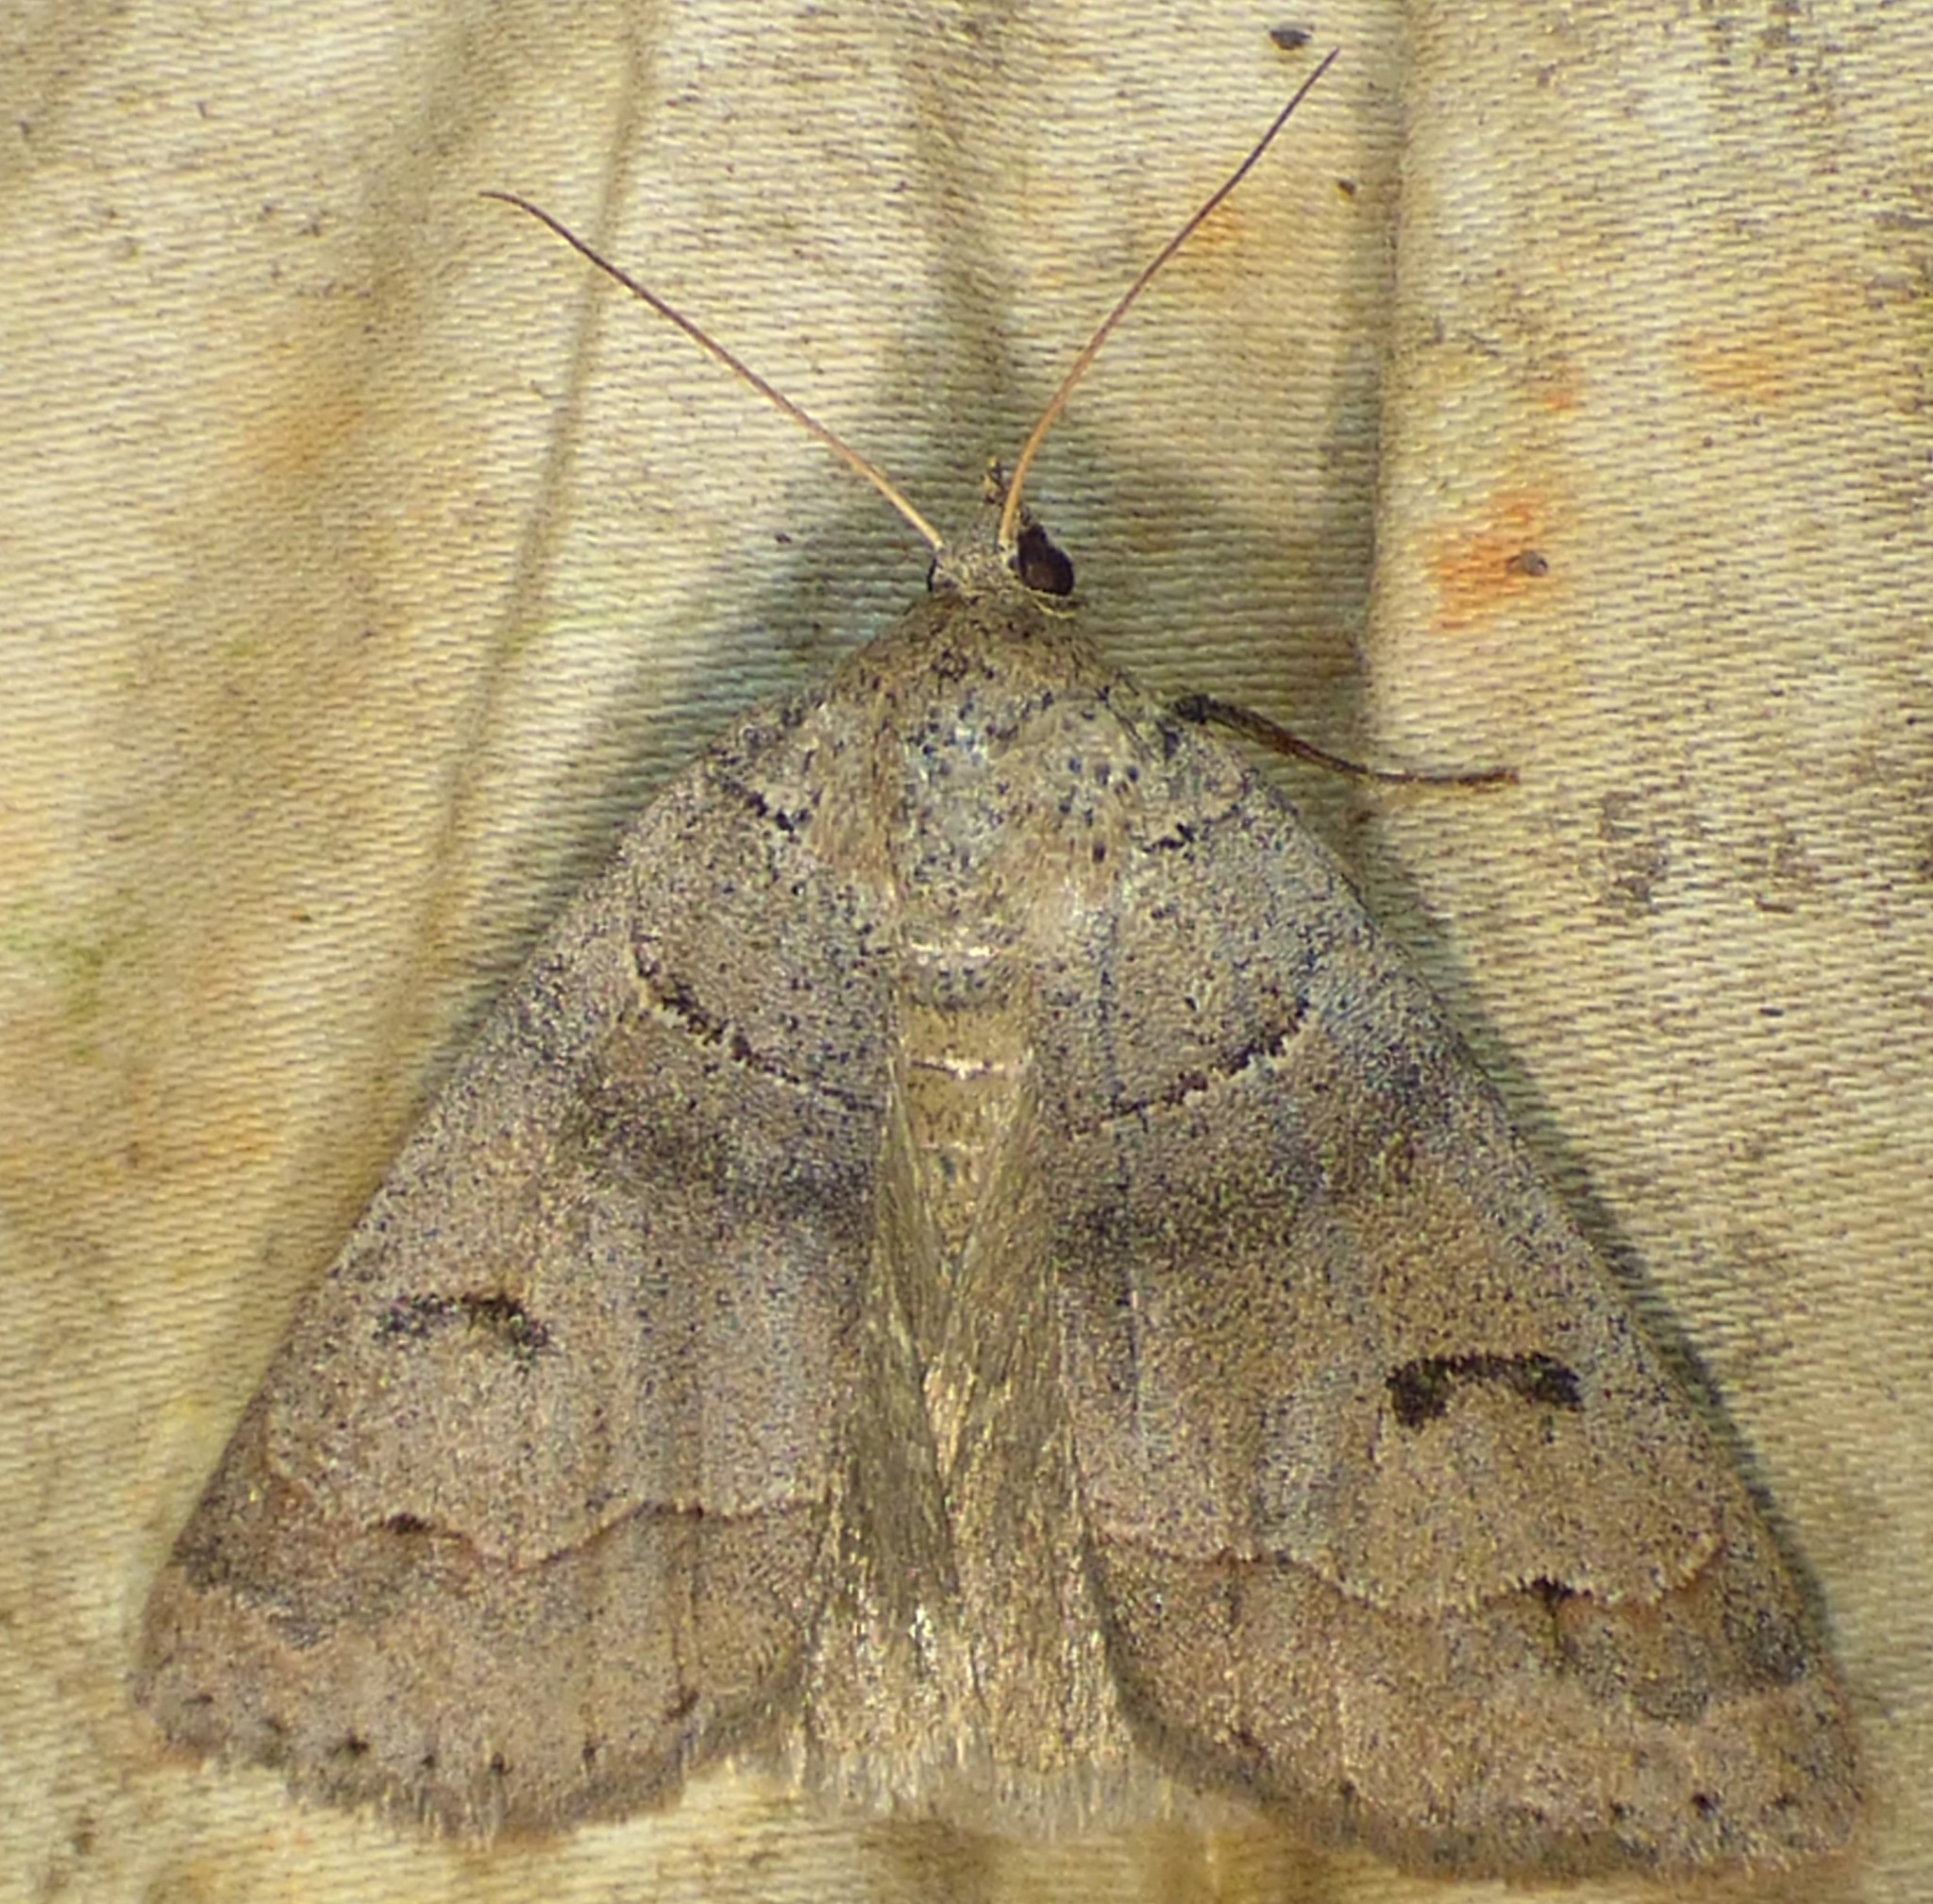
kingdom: Animalia
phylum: Arthropoda
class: Insecta
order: Lepidoptera
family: Erebidae
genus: Phoberia
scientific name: Phoberia atomaris
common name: Common oak moth
